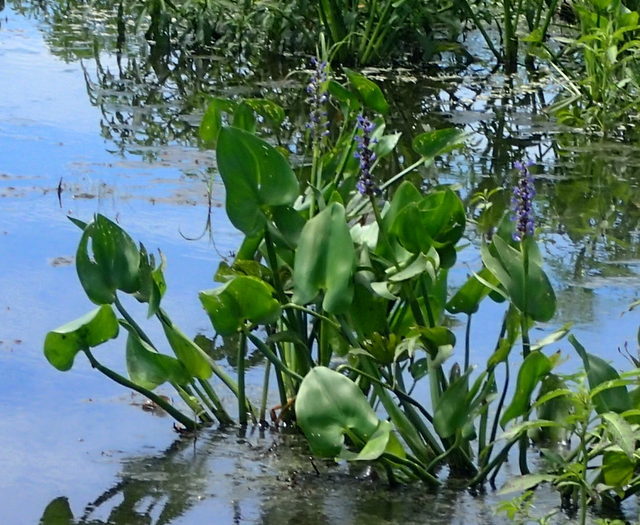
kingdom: Plantae
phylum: Tracheophyta
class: Liliopsida
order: Commelinales
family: Pontederiaceae
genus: Pontederia
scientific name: Pontederia cordata
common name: Pickerelweed
